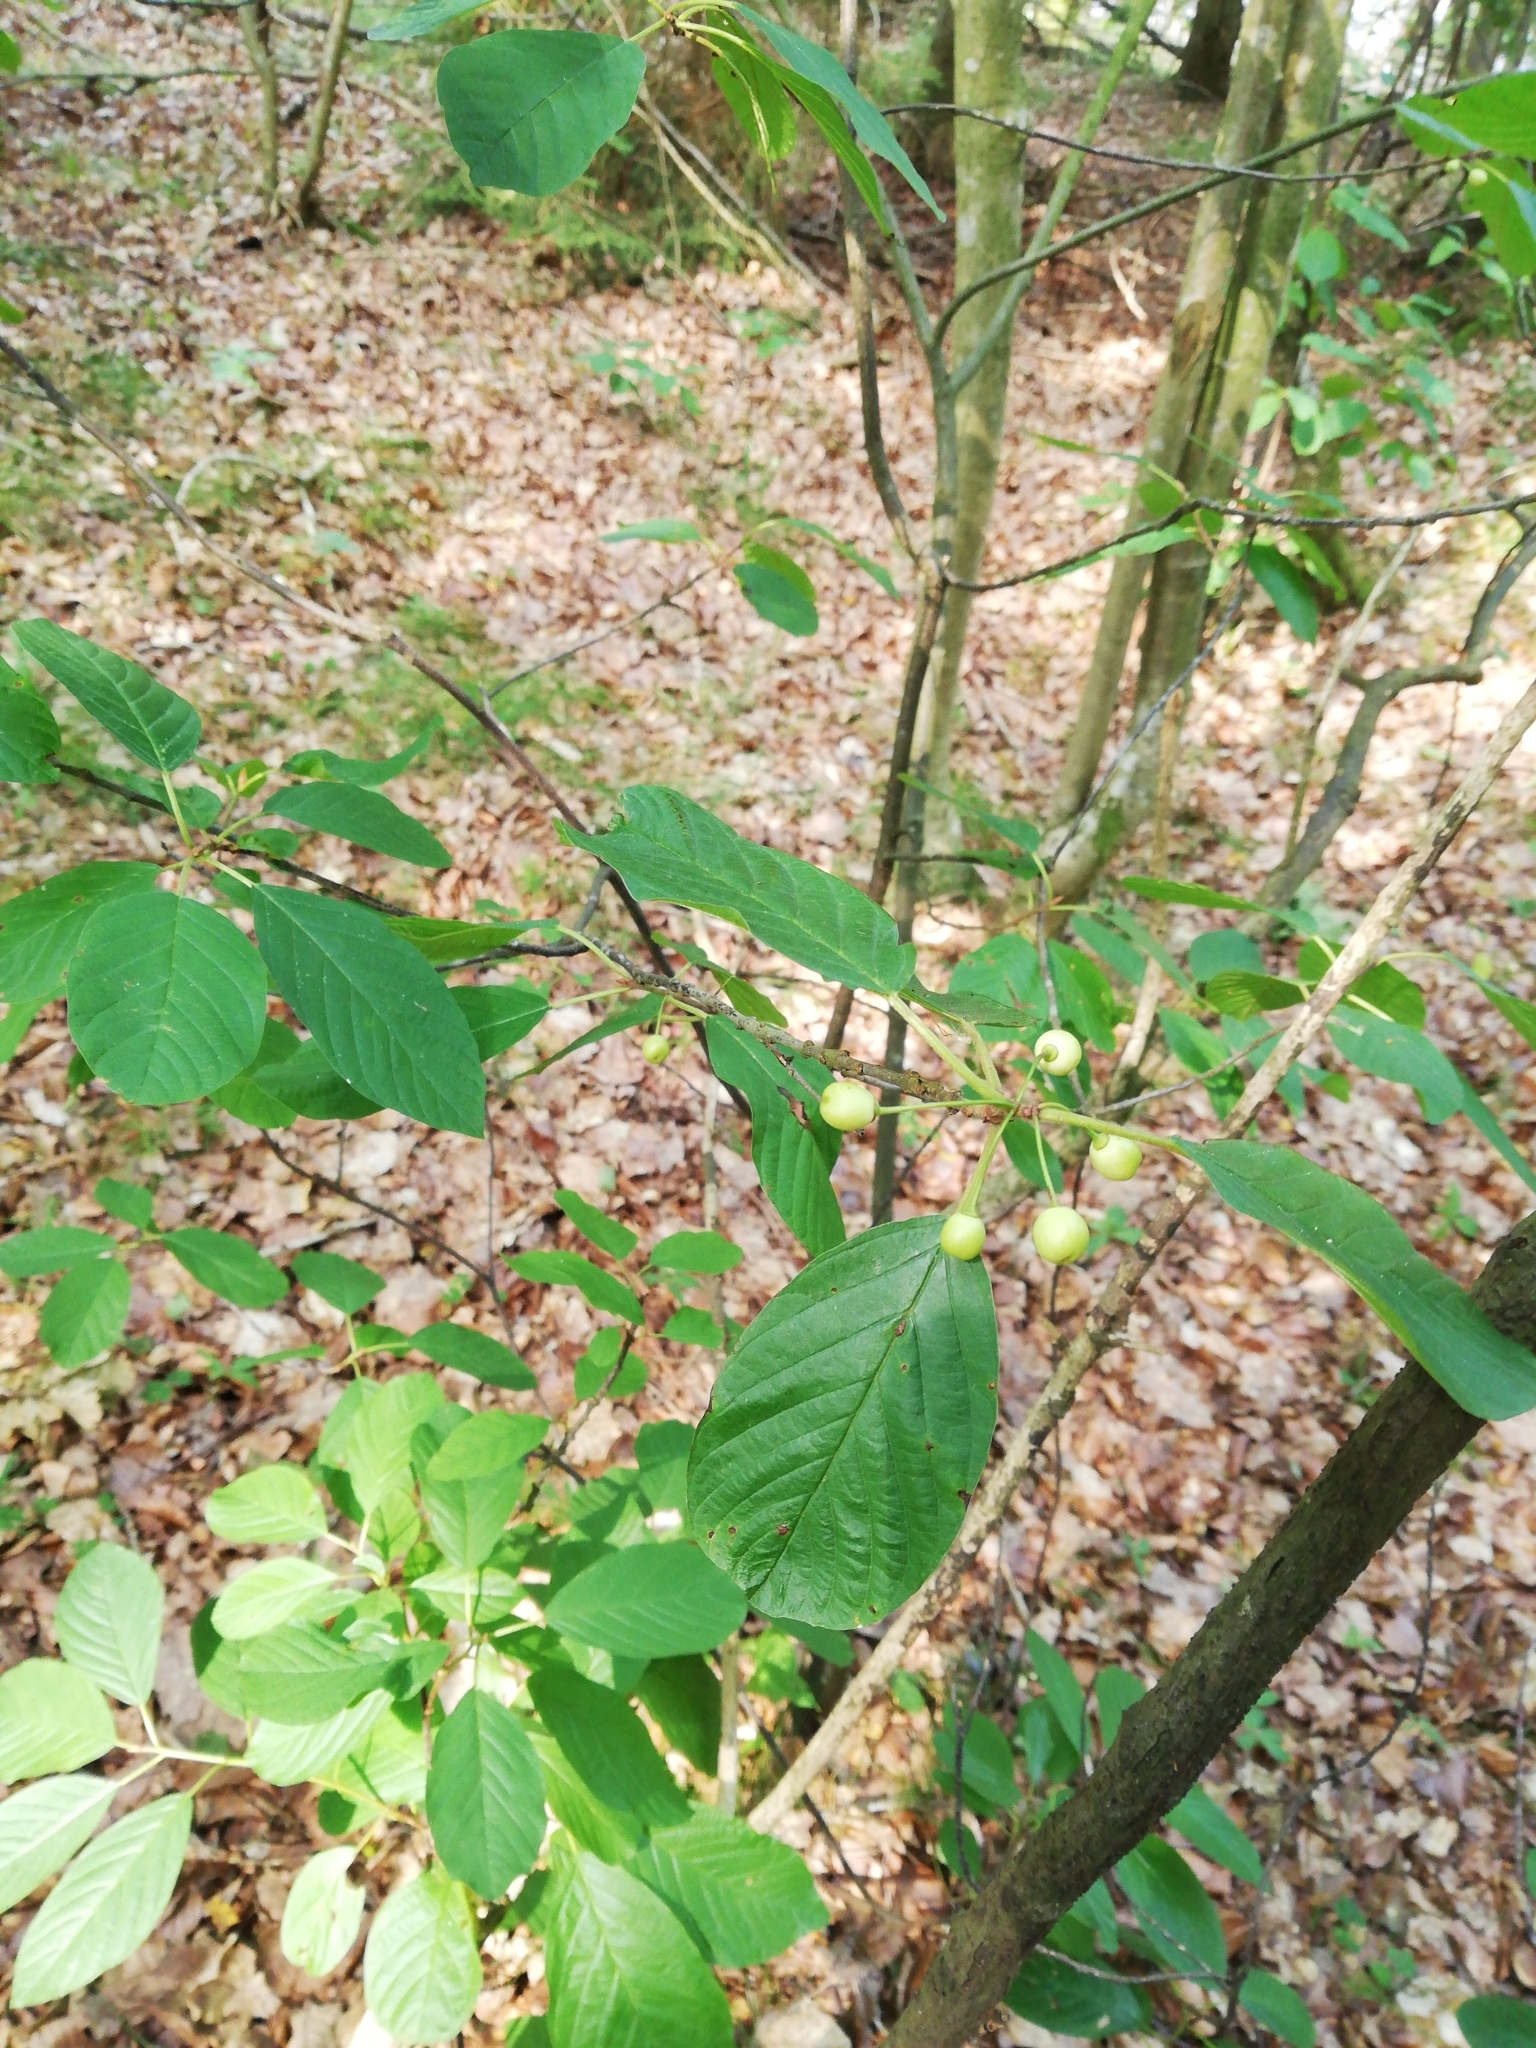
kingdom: Plantae
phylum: Tracheophyta
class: Magnoliopsida
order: Rosales
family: Rhamnaceae
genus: Frangula
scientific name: Frangula alnus
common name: Alder buckthorn
